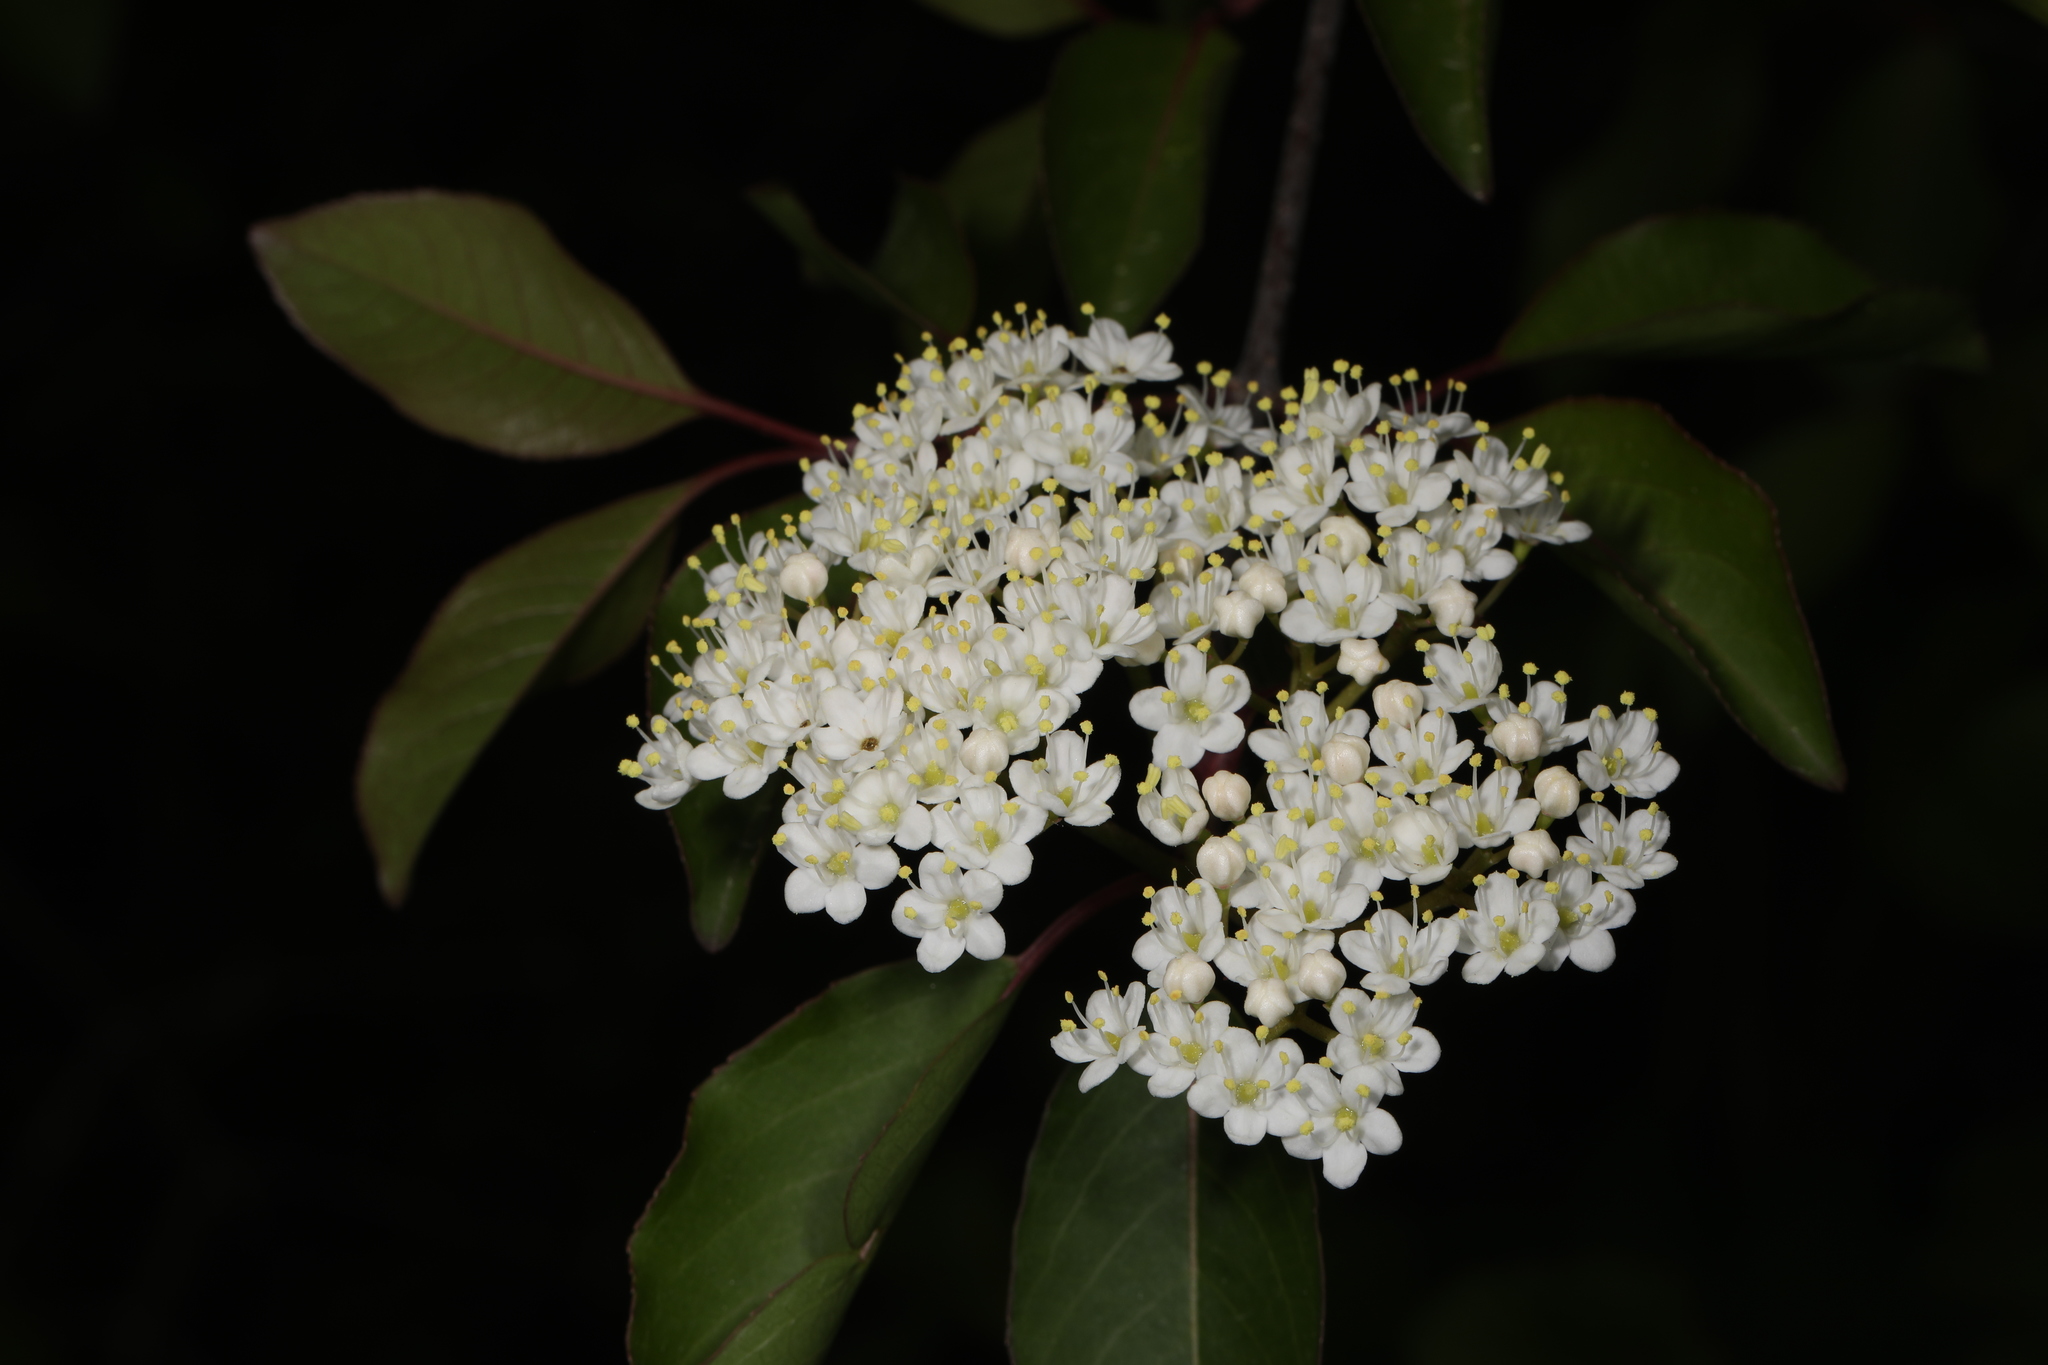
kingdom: Plantae
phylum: Tracheophyta
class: Magnoliopsida
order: Dipsacales
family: Viburnaceae
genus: Viburnum
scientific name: Viburnum prunifolium
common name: Black haw
